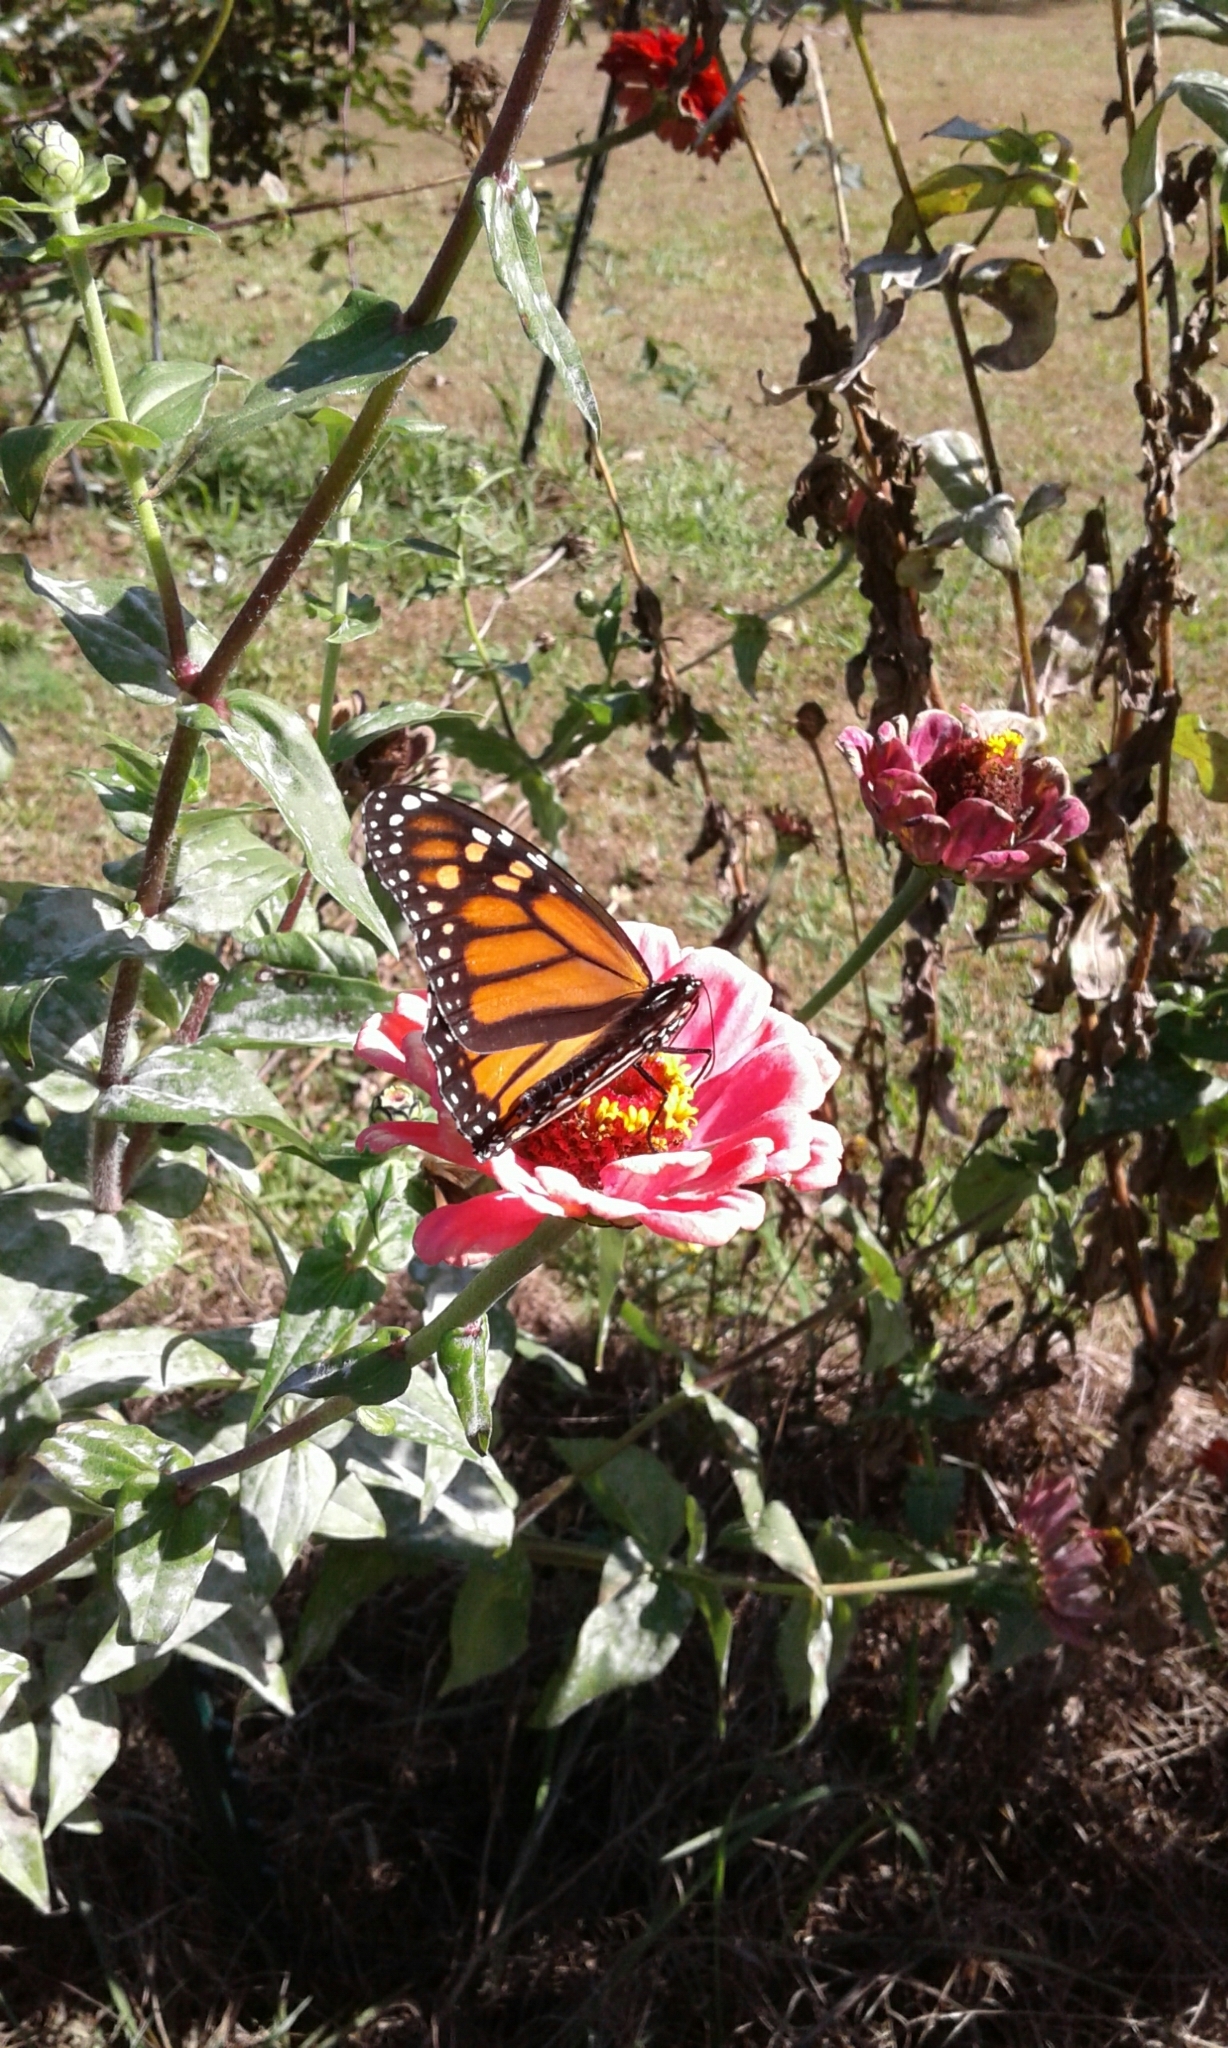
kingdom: Animalia
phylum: Arthropoda
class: Insecta
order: Lepidoptera
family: Nymphalidae
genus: Danaus
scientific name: Danaus plexippus
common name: Monarch
